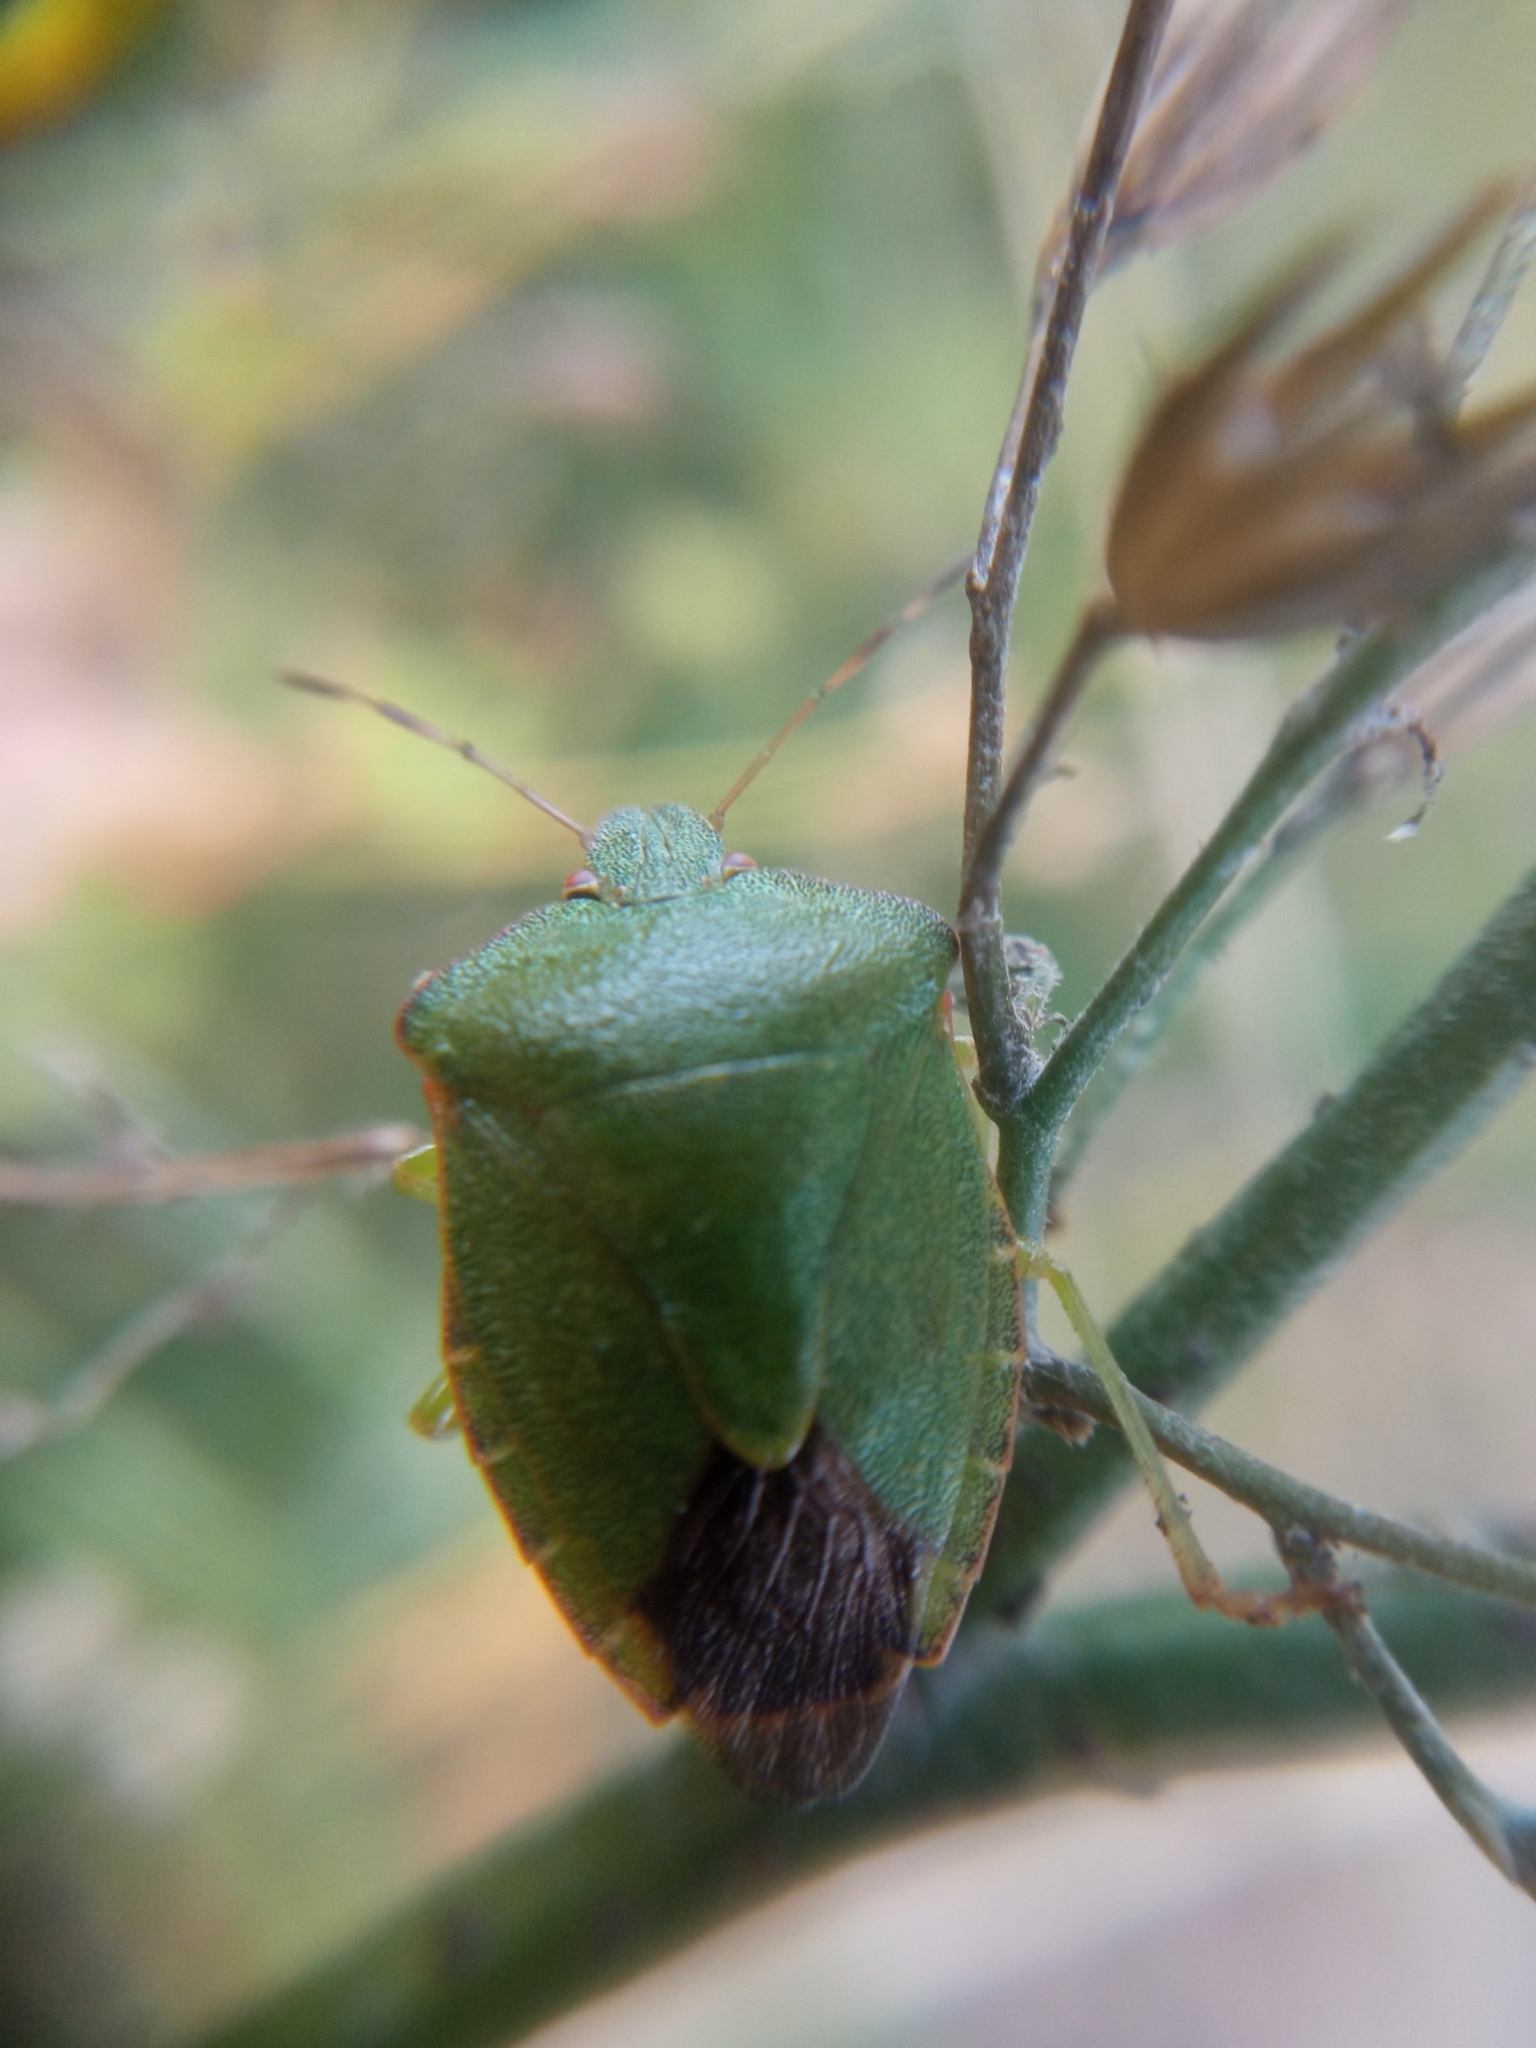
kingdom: Animalia
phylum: Arthropoda
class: Insecta
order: Hemiptera
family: Pentatomidae
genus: Palomena
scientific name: Palomena prasina
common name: Green shieldbug
